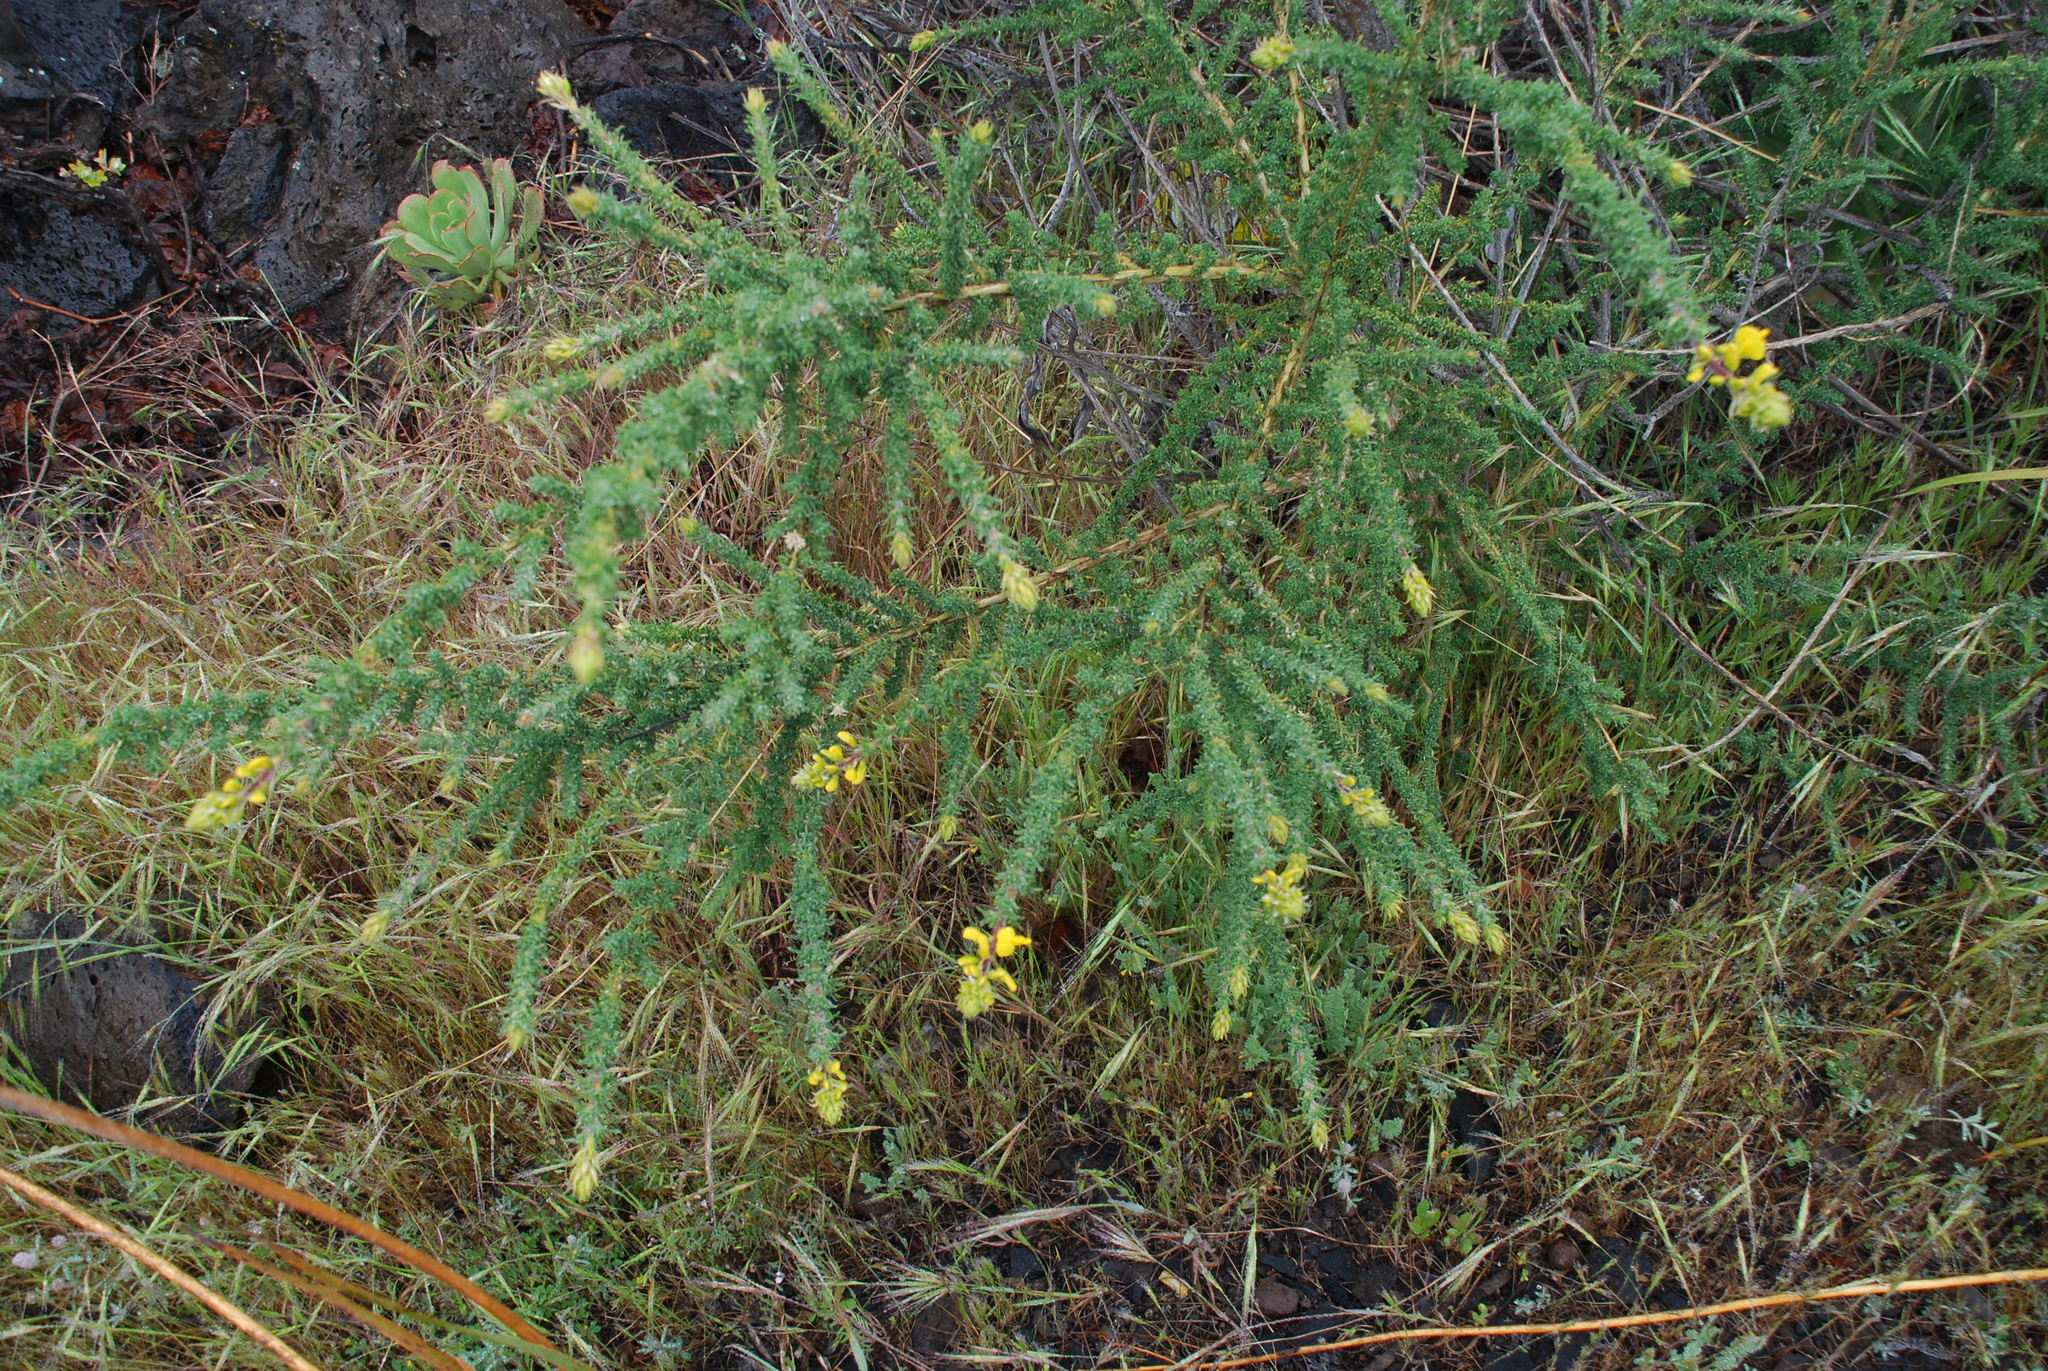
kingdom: Plantae
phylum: Tracheophyta
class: Magnoliopsida
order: Fabales
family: Fabaceae
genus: Adenocarpus
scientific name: Adenocarpus foliolosus
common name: Canary island flatpod
